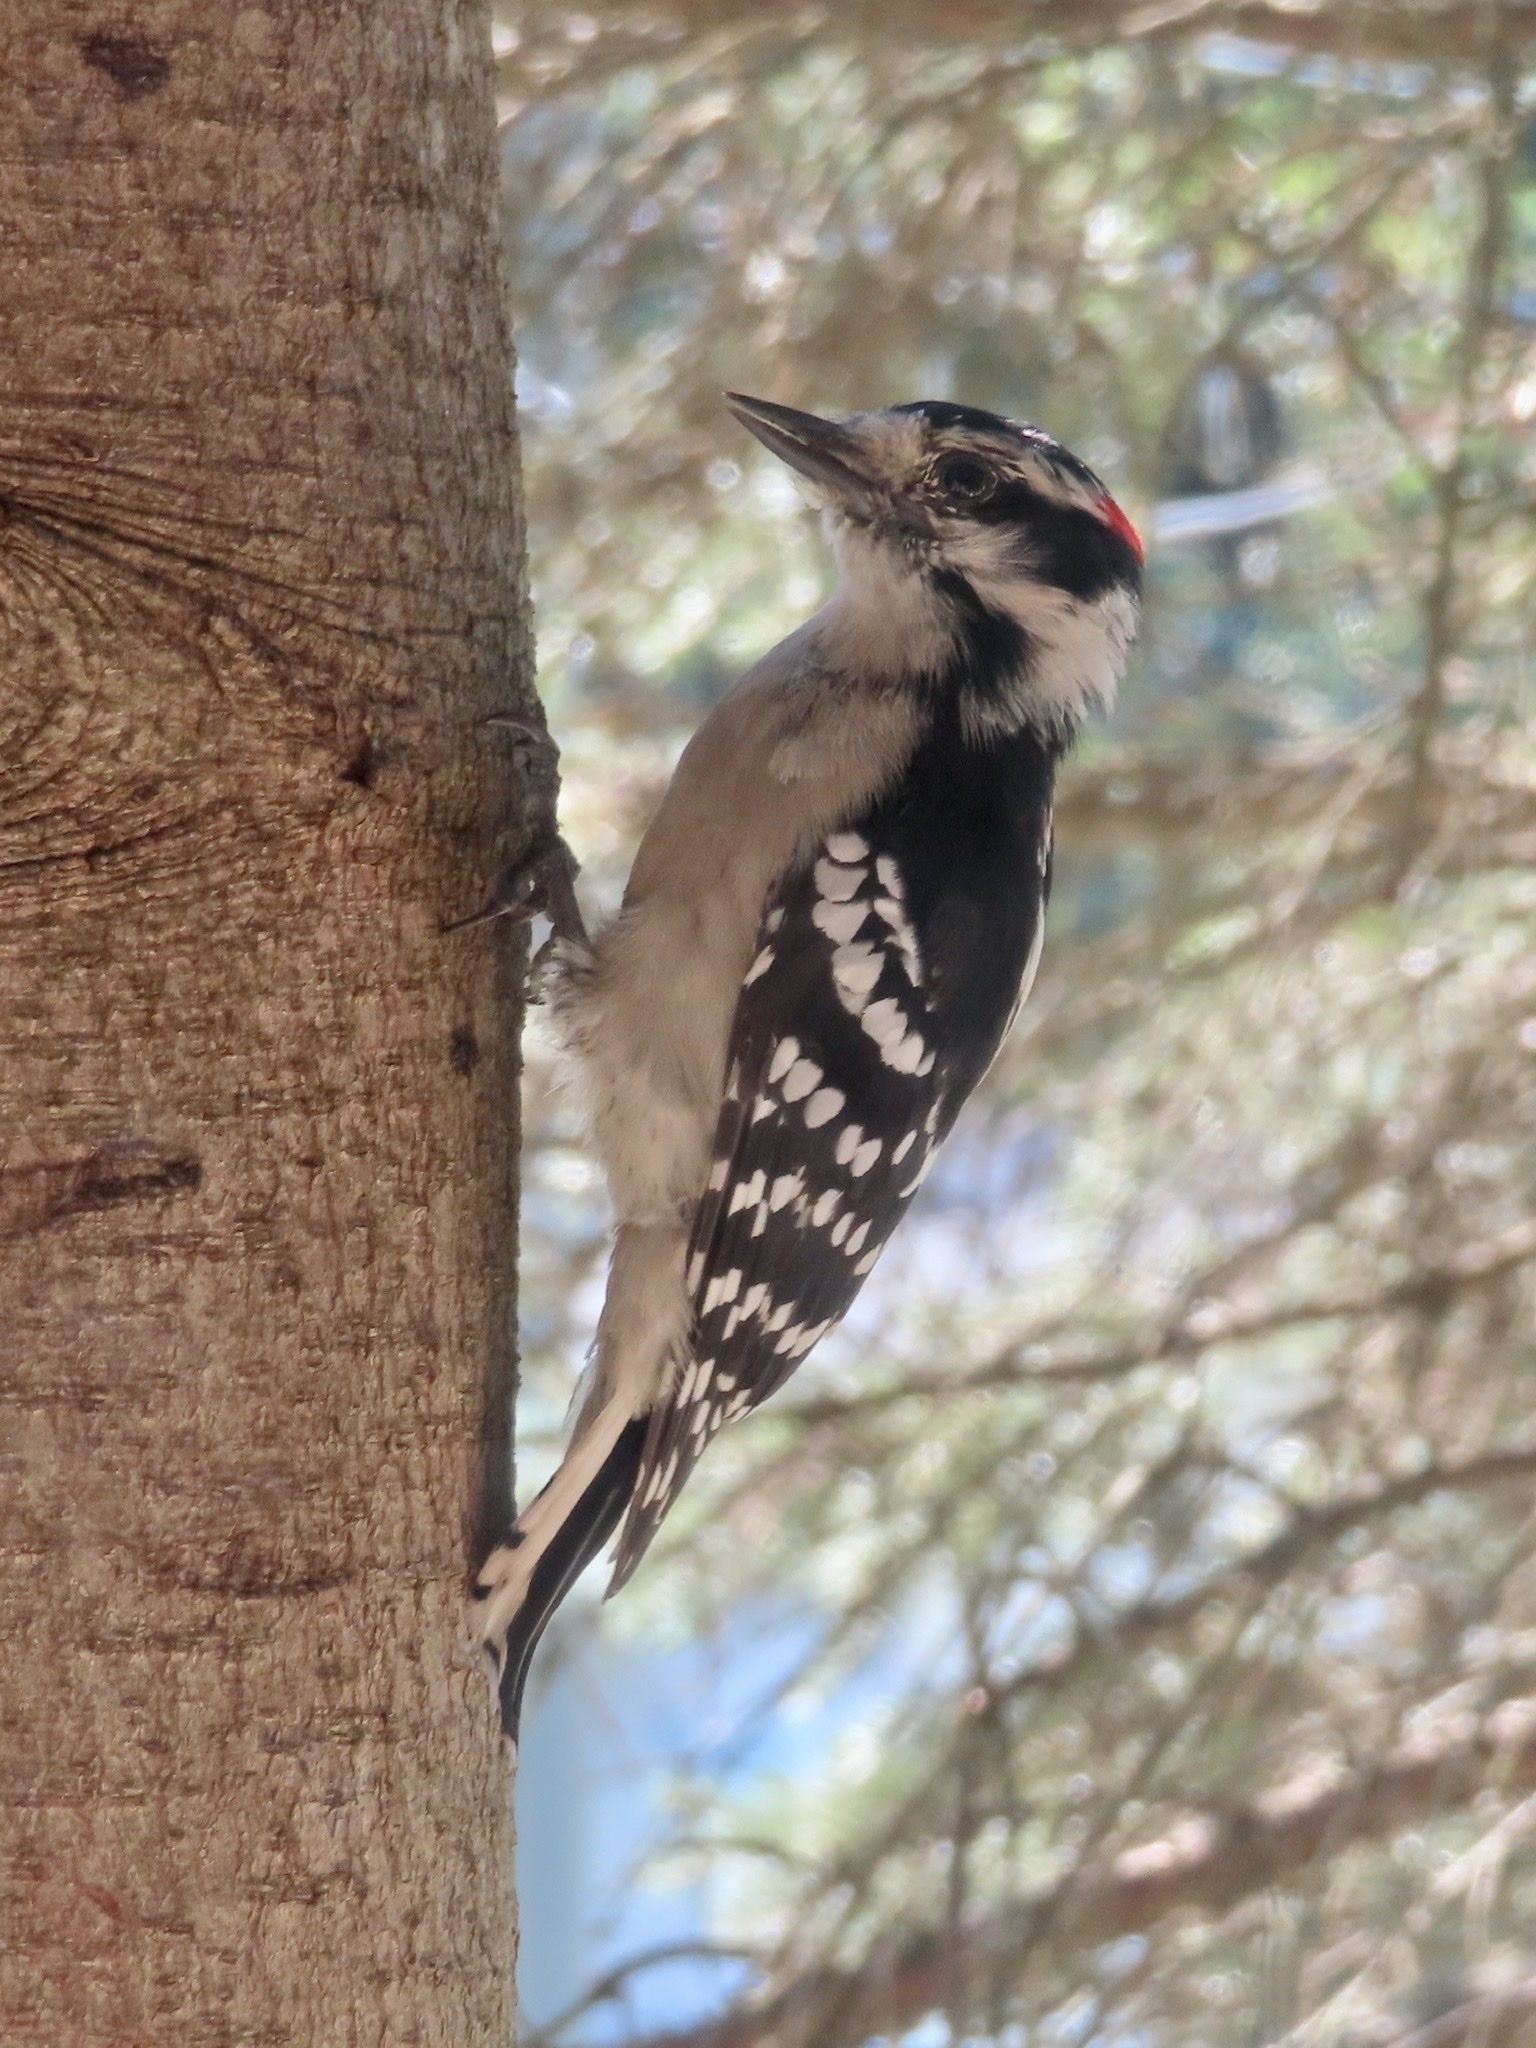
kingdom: Animalia
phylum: Chordata
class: Aves
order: Piciformes
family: Picidae
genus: Dryobates
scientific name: Dryobates pubescens
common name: Downy woodpecker
